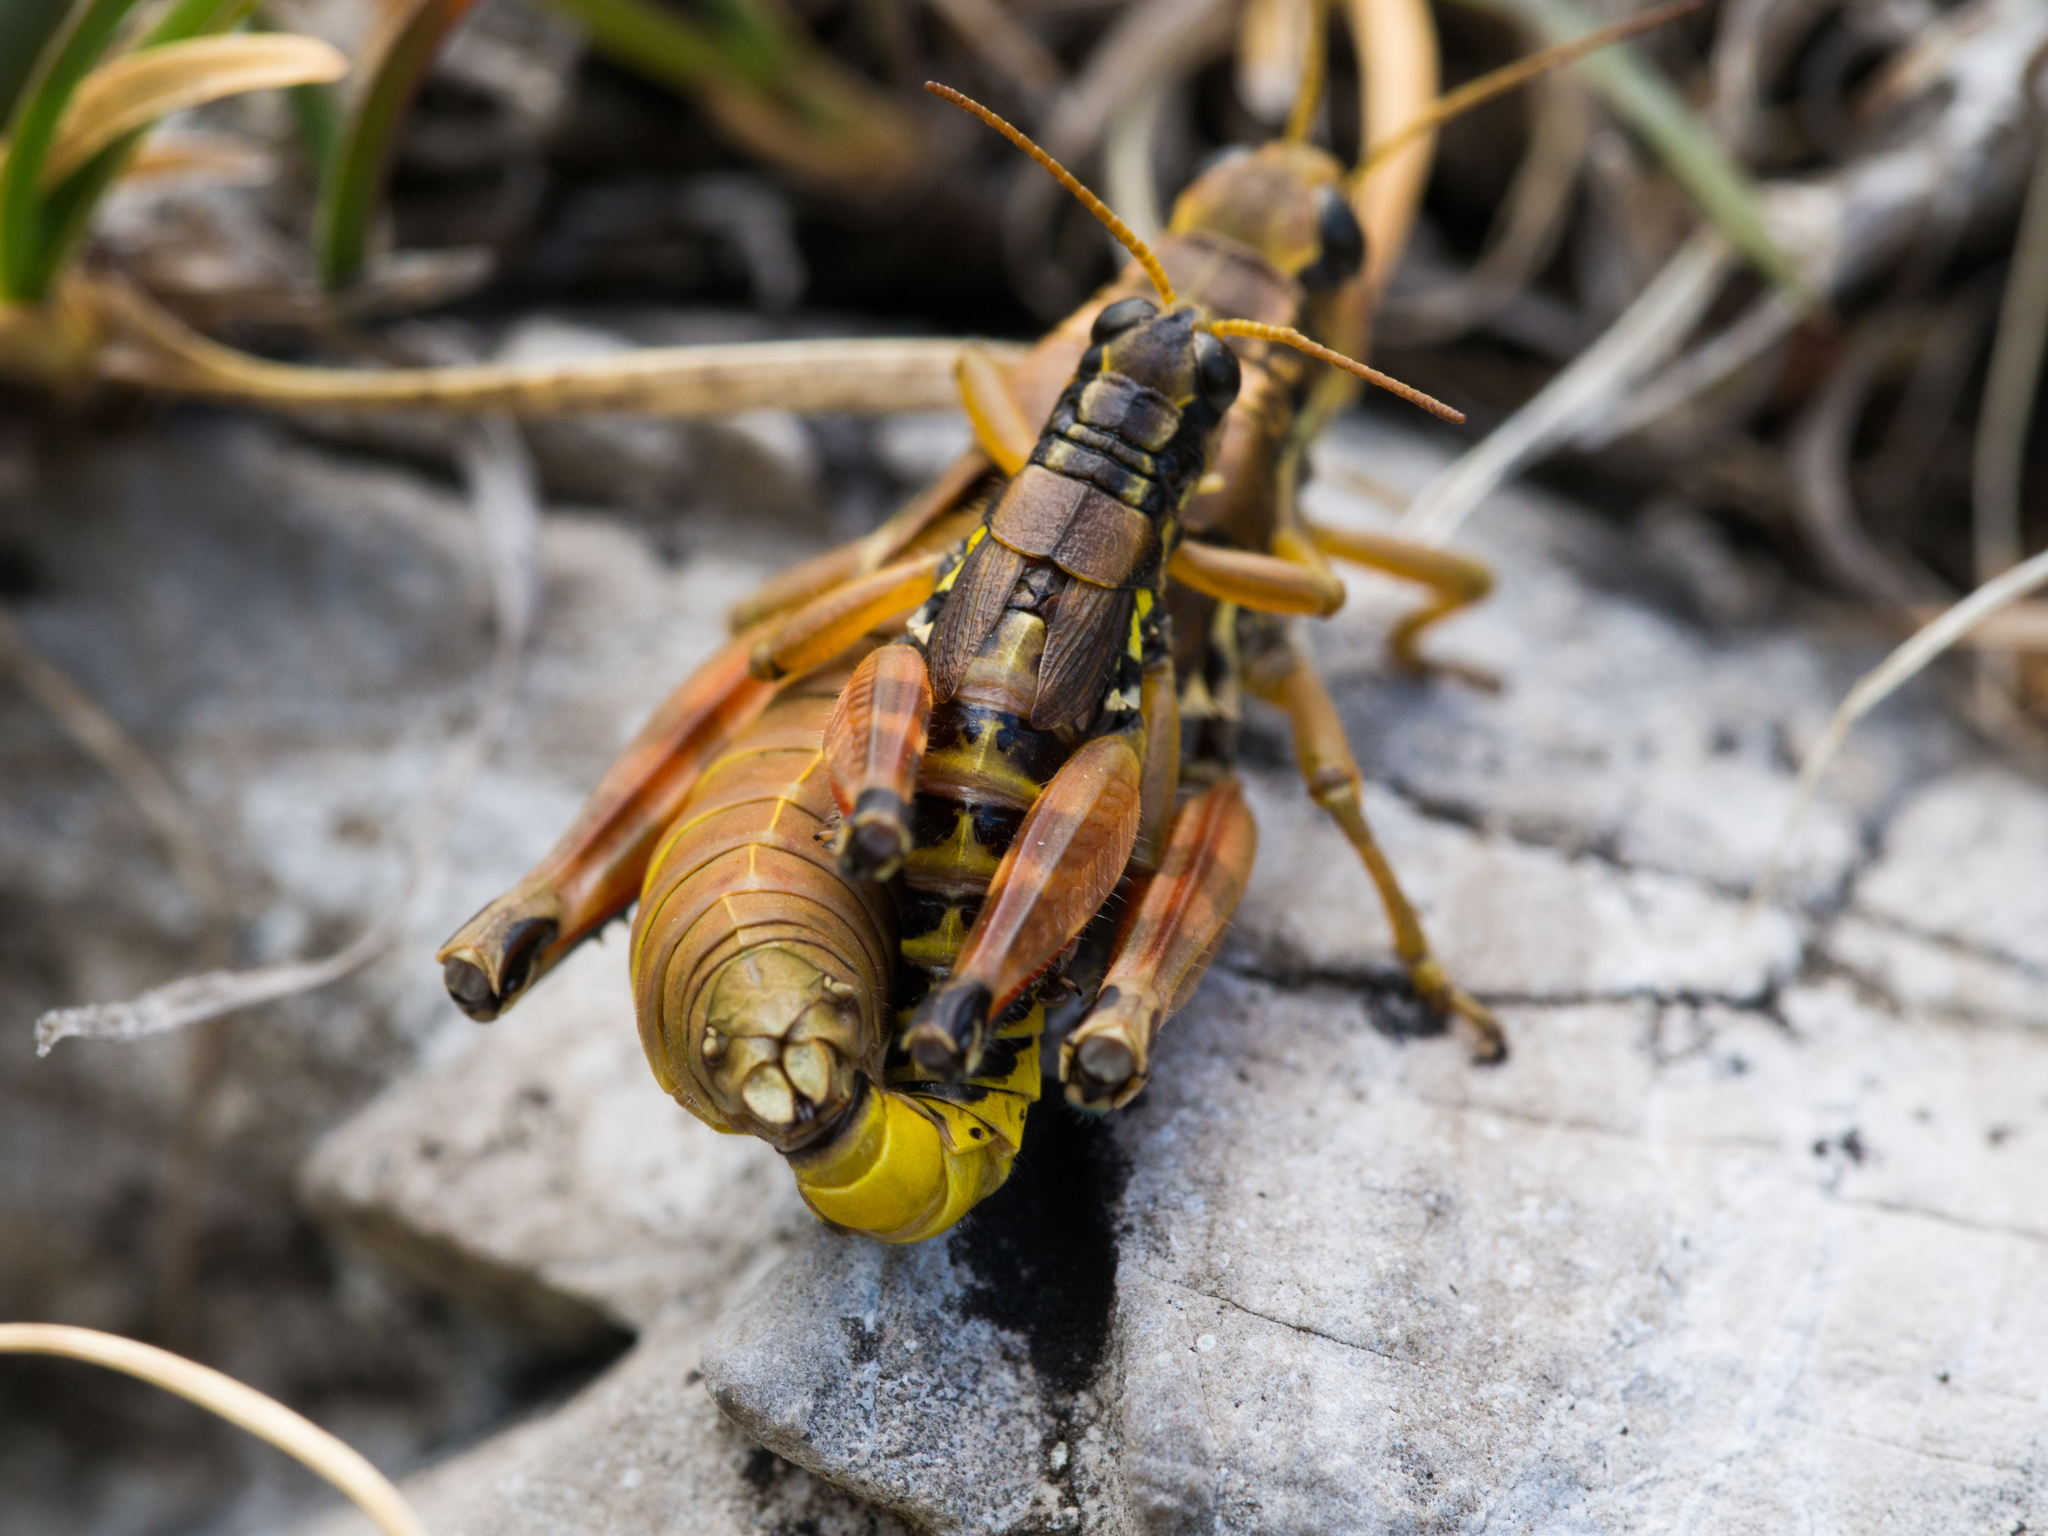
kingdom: Animalia
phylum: Arthropoda
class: Insecta
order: Orthoptera
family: Acrididae
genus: Podisma
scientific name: Podisma pedestris
